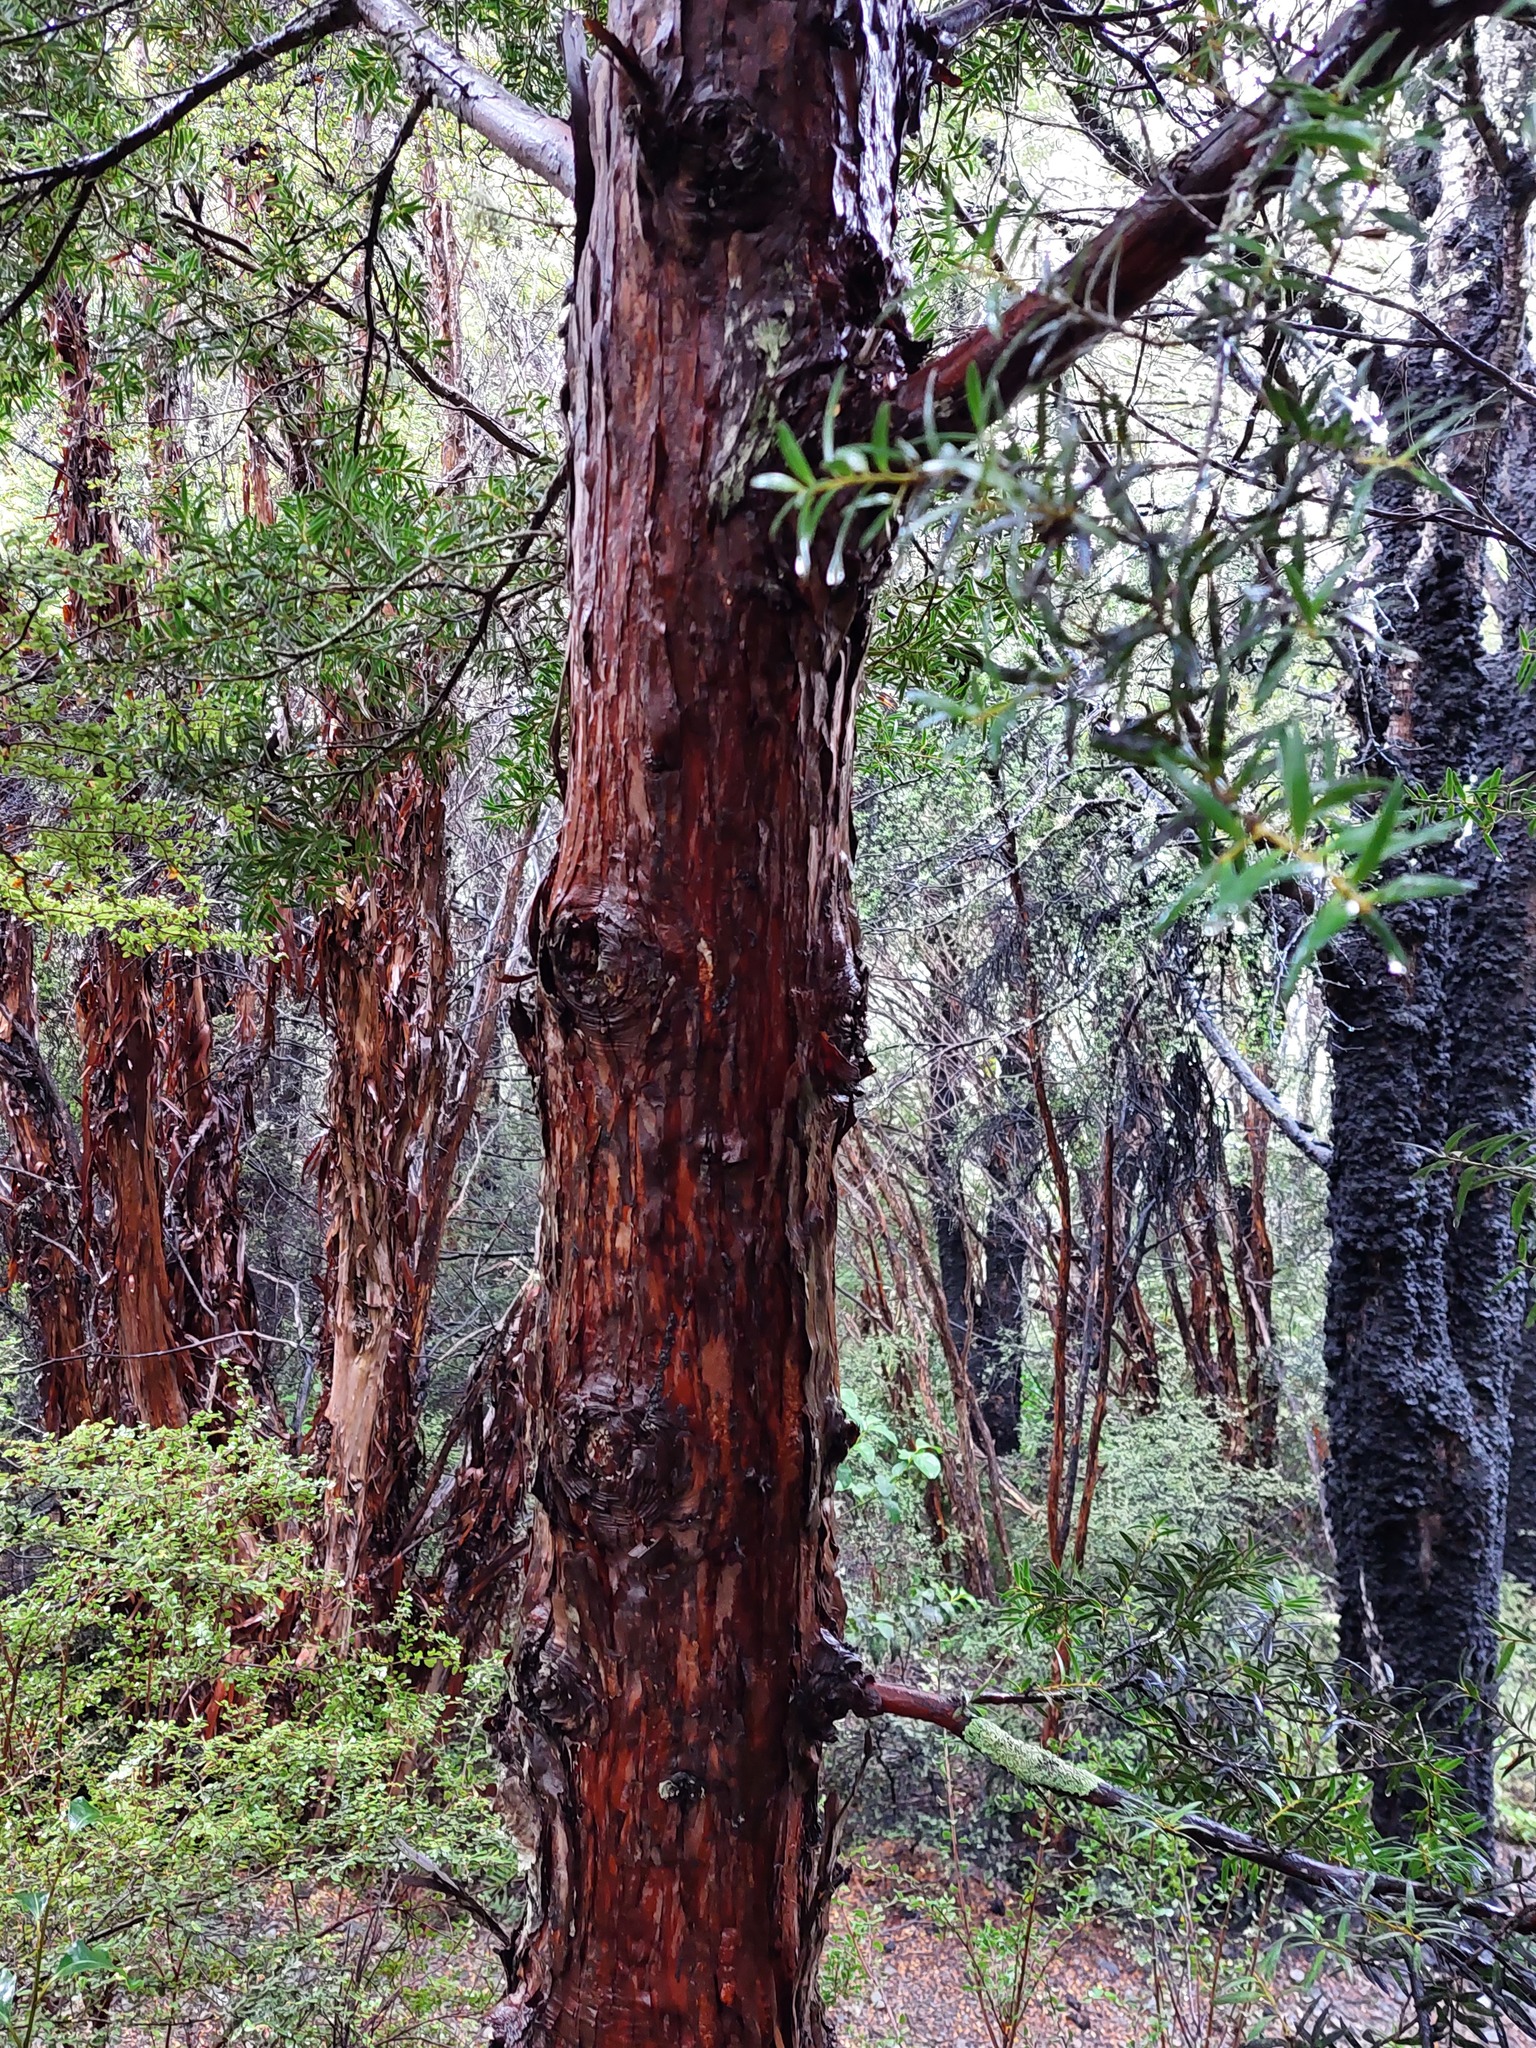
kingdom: Plantae
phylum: Tracheophyta
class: Pinopsida
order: Pinales
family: Podocarpaceae
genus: Podocarpus
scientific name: Podocarpus laetus
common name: Hall's totara
